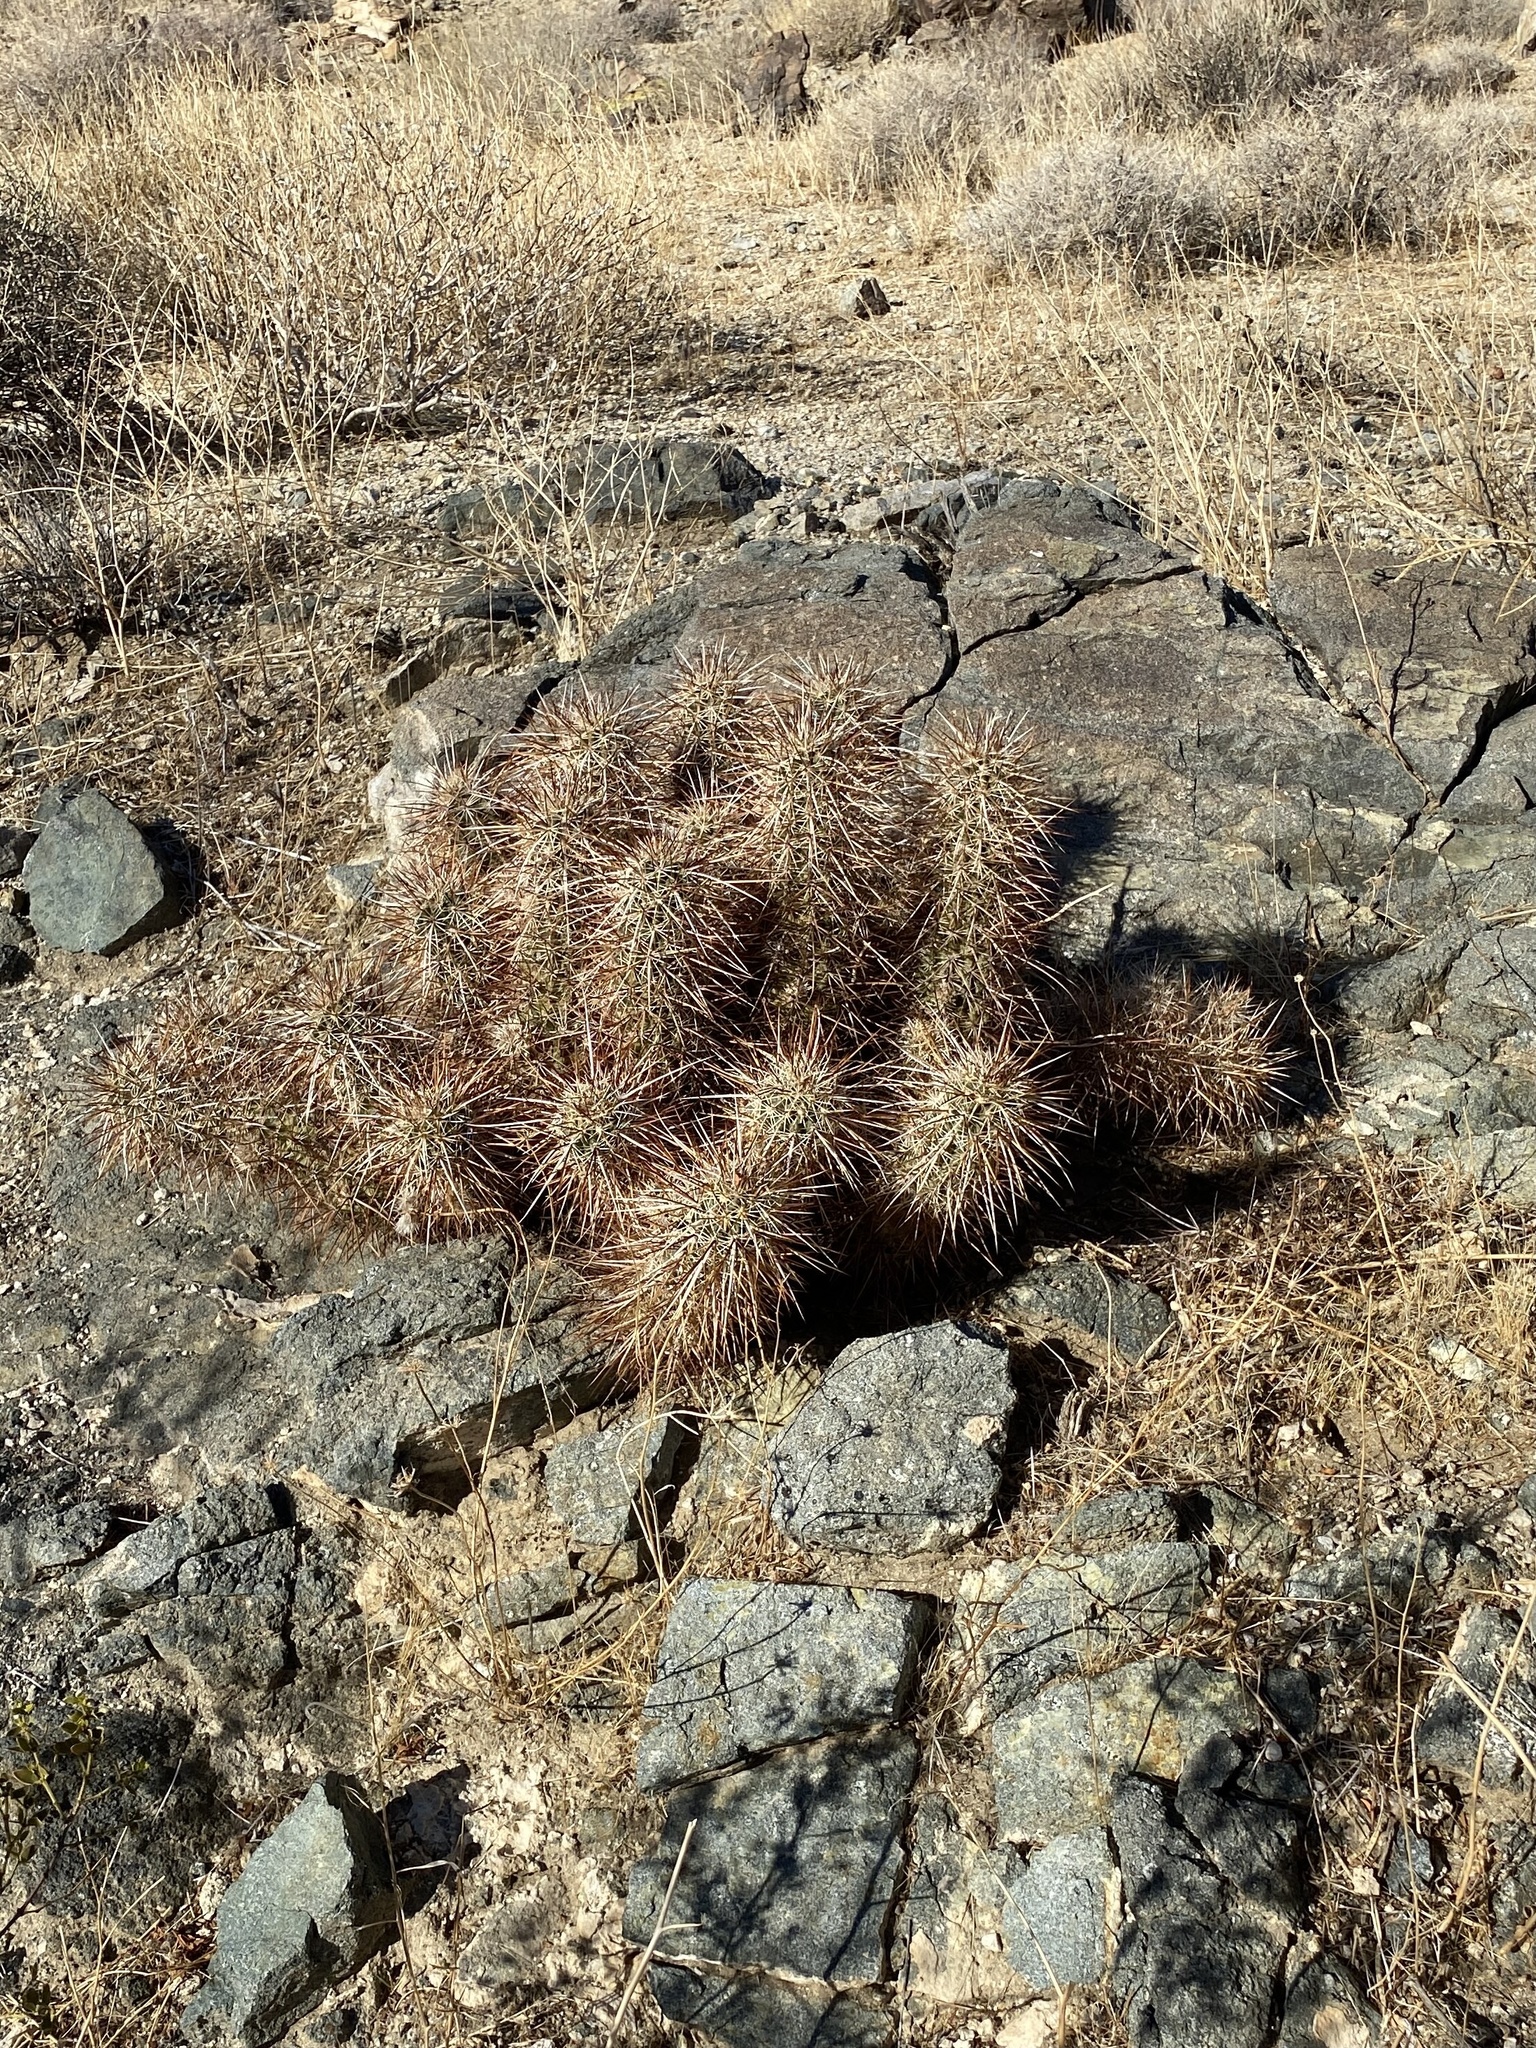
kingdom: Plantae
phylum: Tracheophyta
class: Magnoliopsida
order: Caryophyllales
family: Cactaceae
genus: Echinocereus
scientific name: Echinocereus engelmannii
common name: Engelmann's hedgehog cactus
